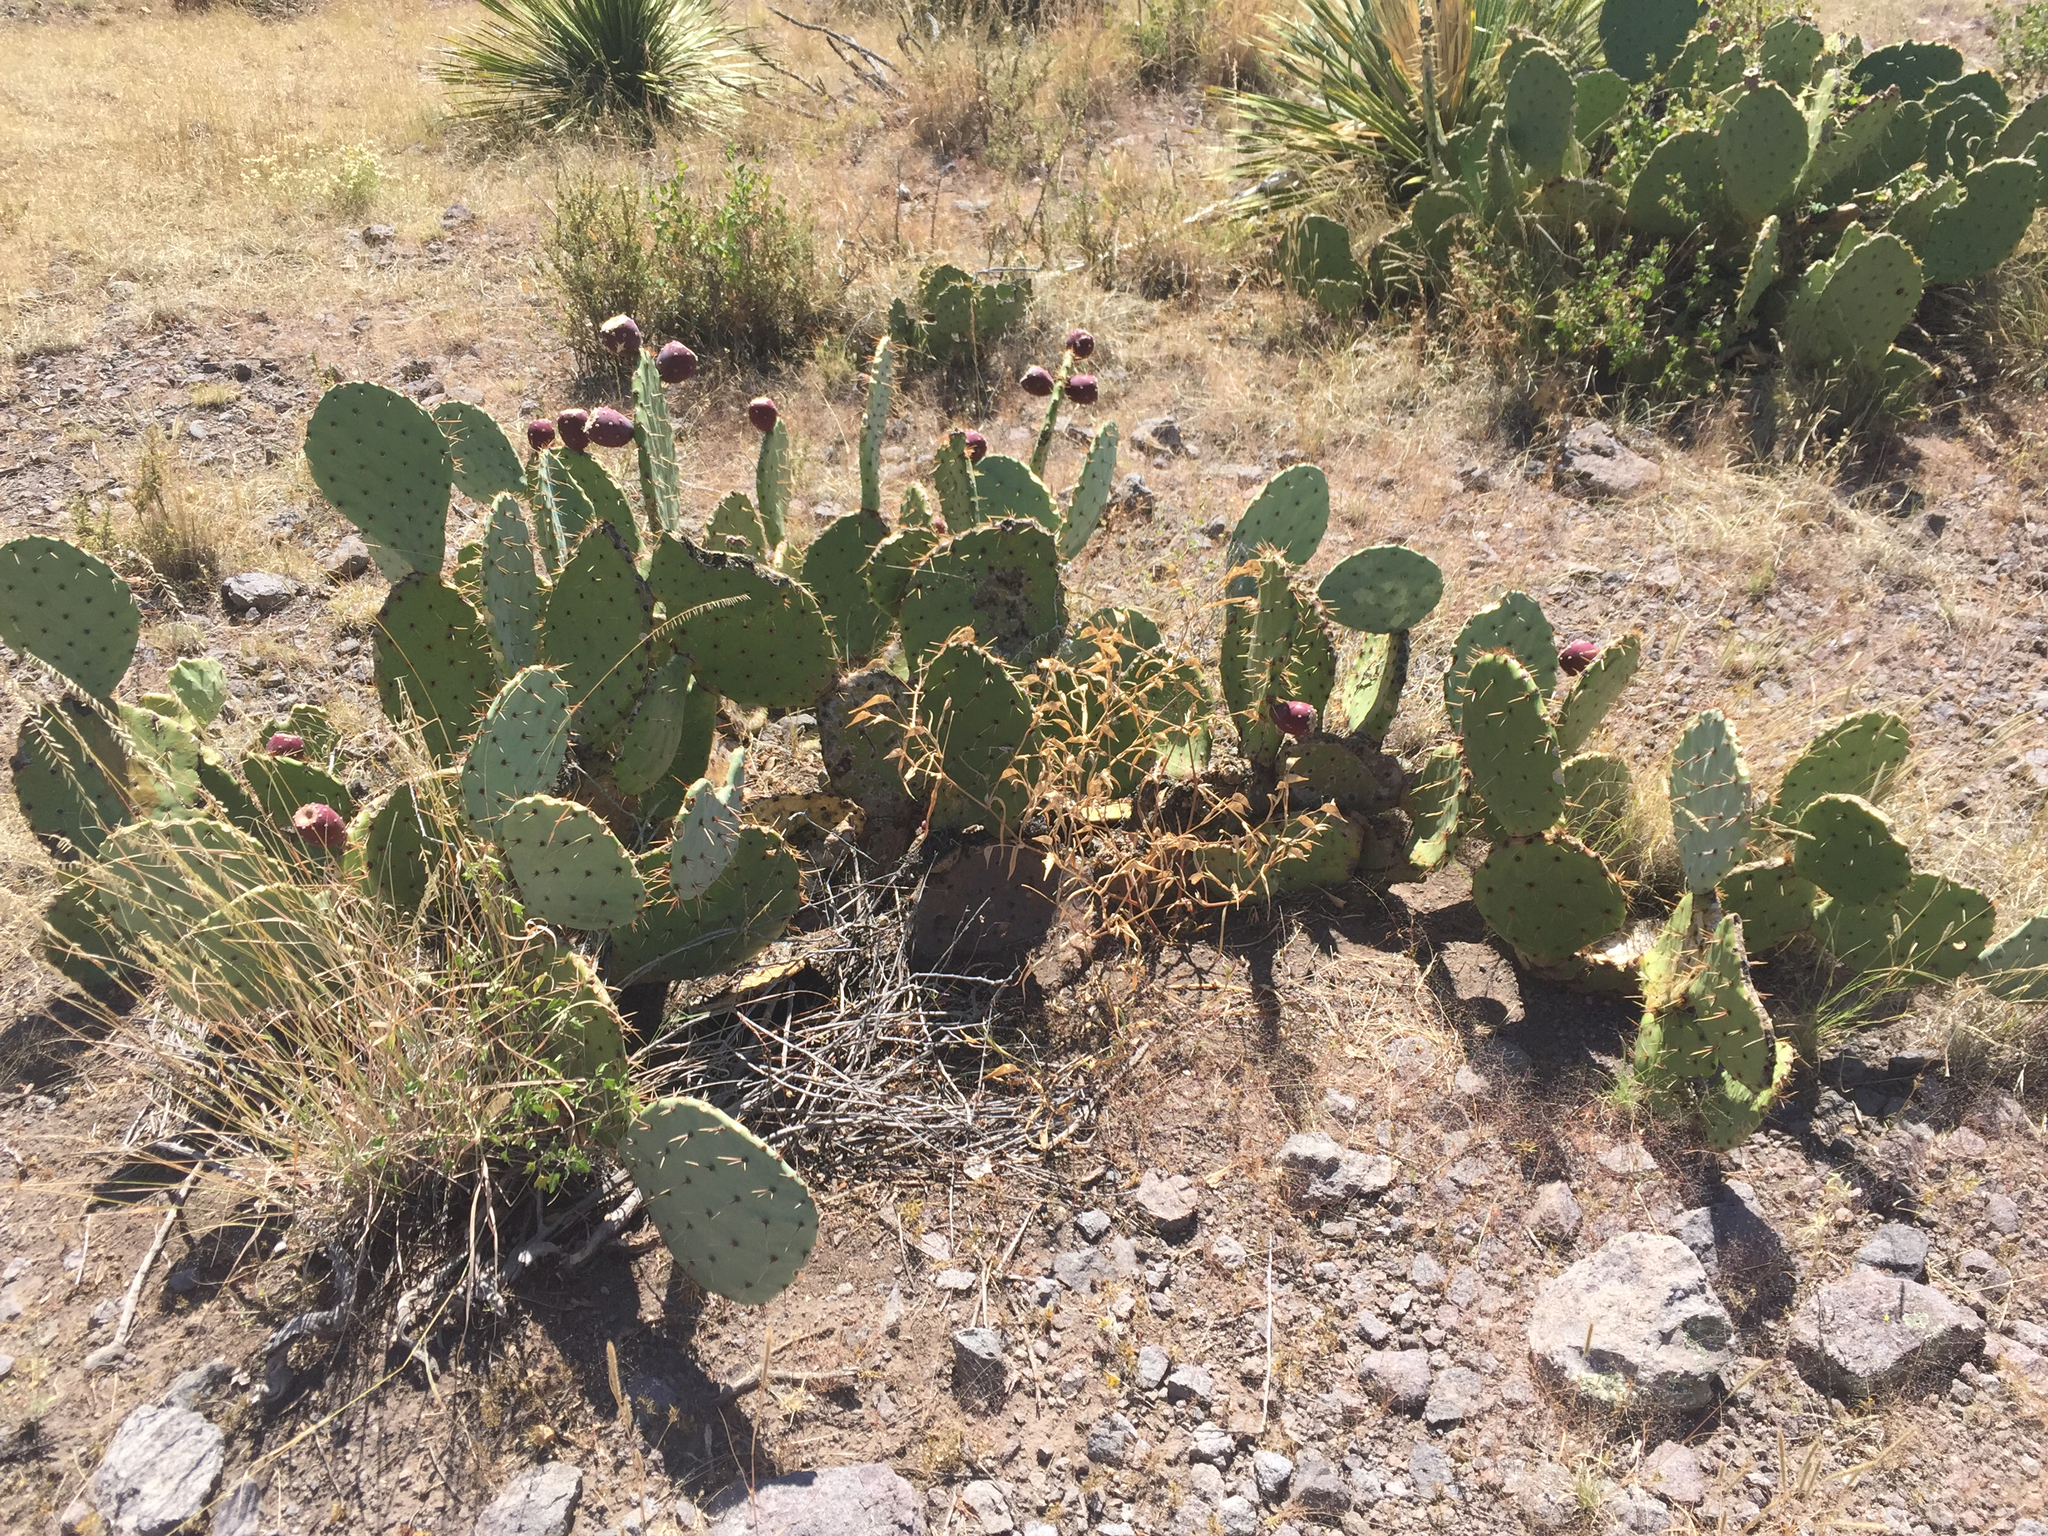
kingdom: Plantae
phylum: Tracheophyta
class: Magnoliopsida
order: Caryophyllales
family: Cactaceae
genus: Opuntia
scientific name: Opuntia orbiculata
